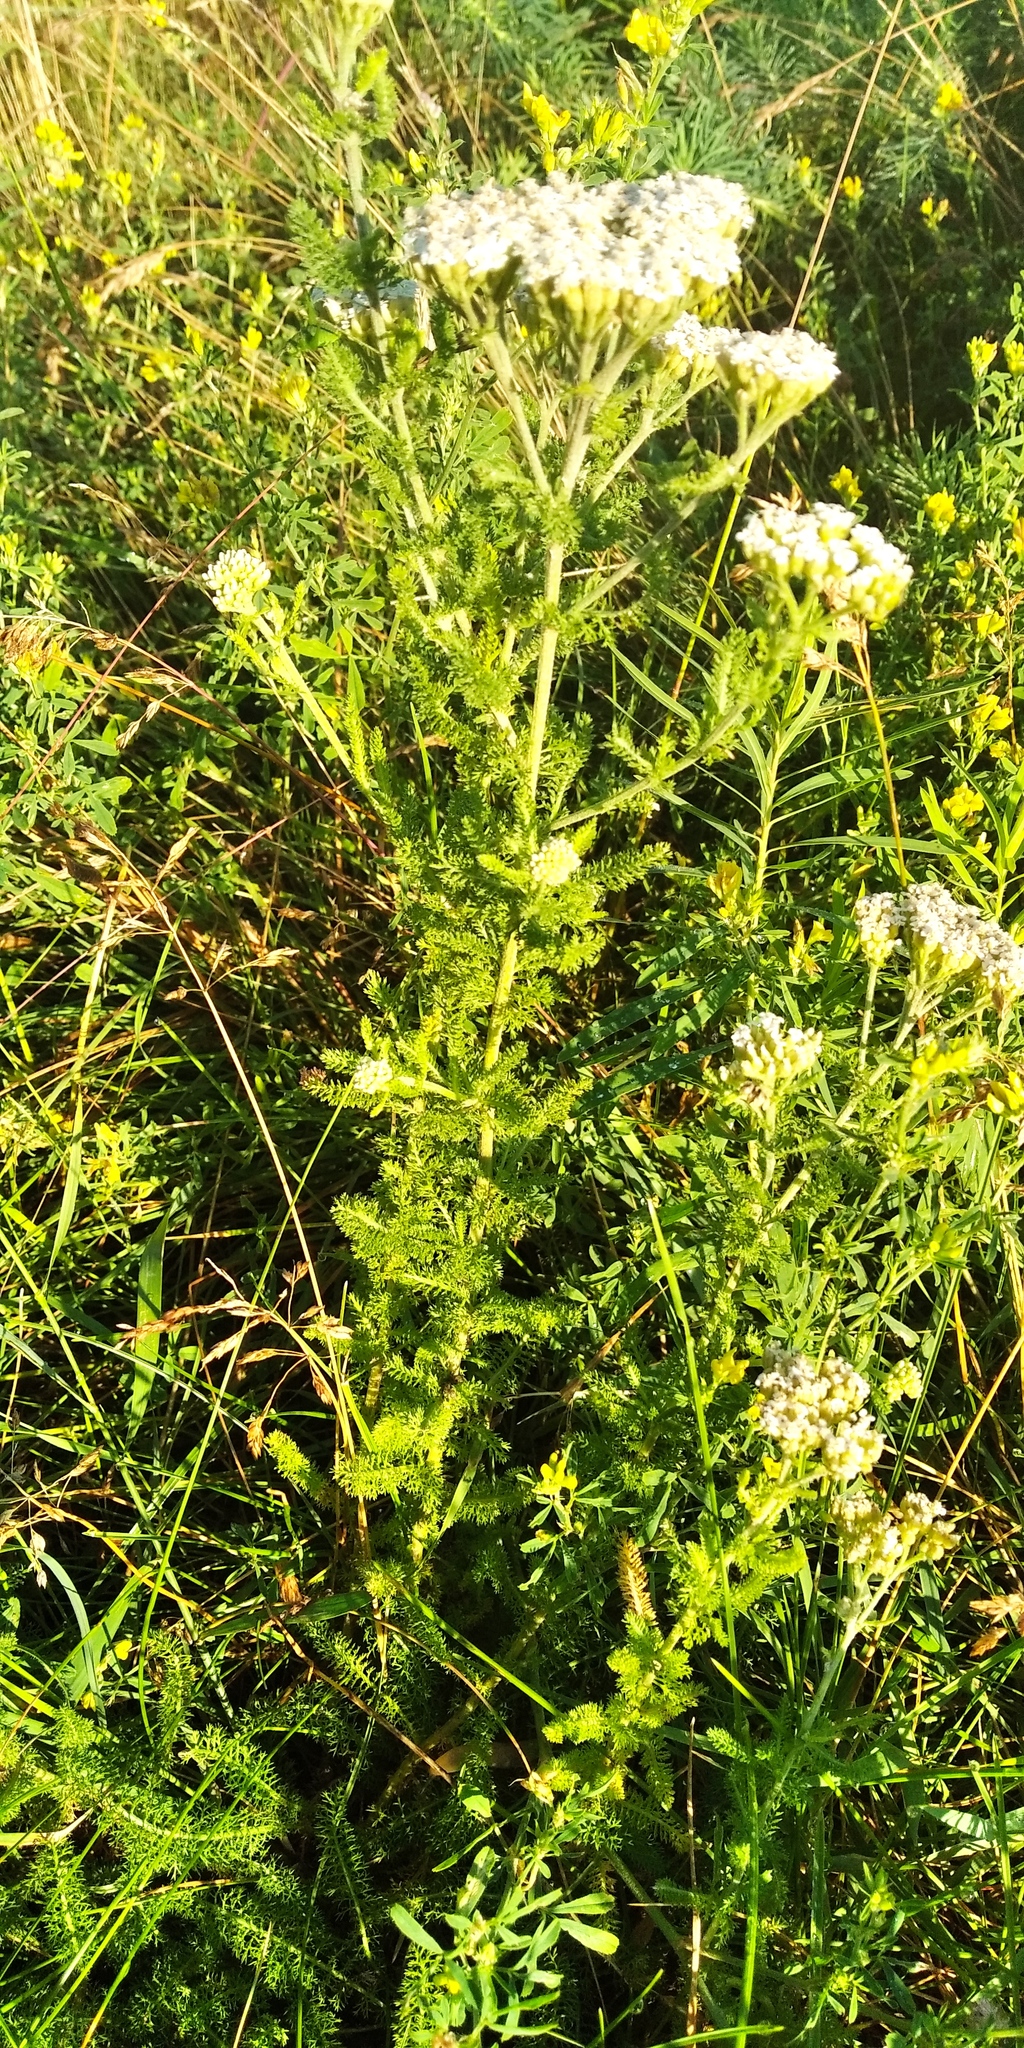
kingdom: Plantae
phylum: Tracheophyta
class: Magnoliopsida
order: Asterales
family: Asteraceae
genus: Achillea
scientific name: Achillea millefolium
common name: Yarrow
